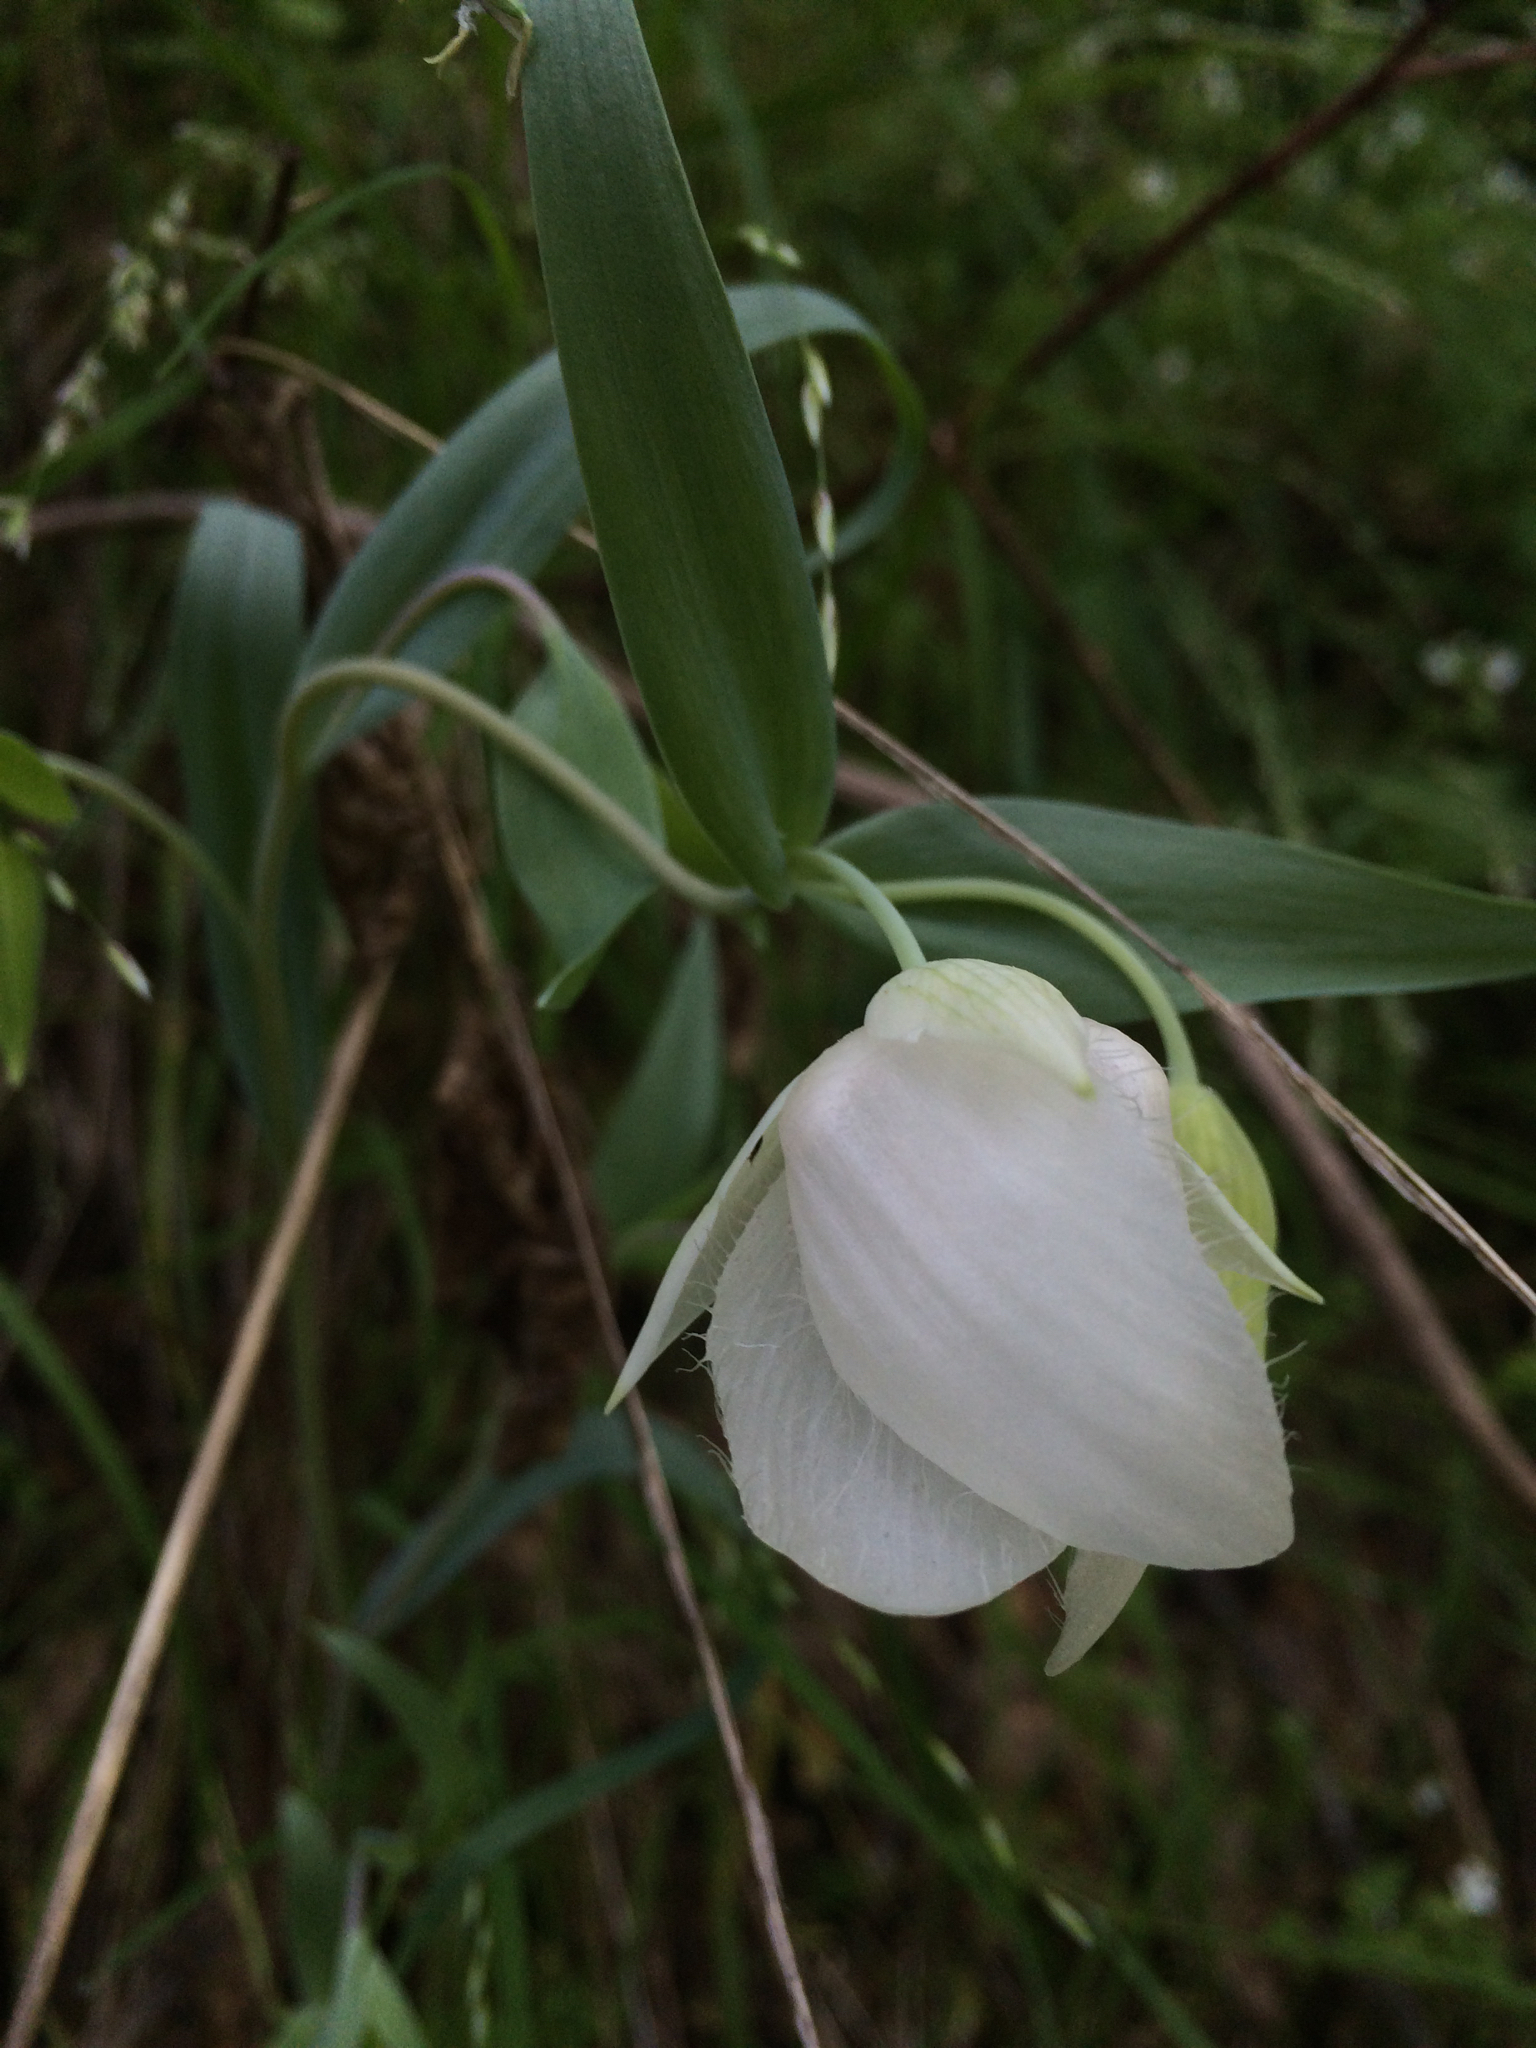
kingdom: Plantae
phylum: Tracheophyta
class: Liliopsida
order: Liliales
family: Liliaceae
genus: Calochortus
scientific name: Calochortus albus
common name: Fairy-lantern
